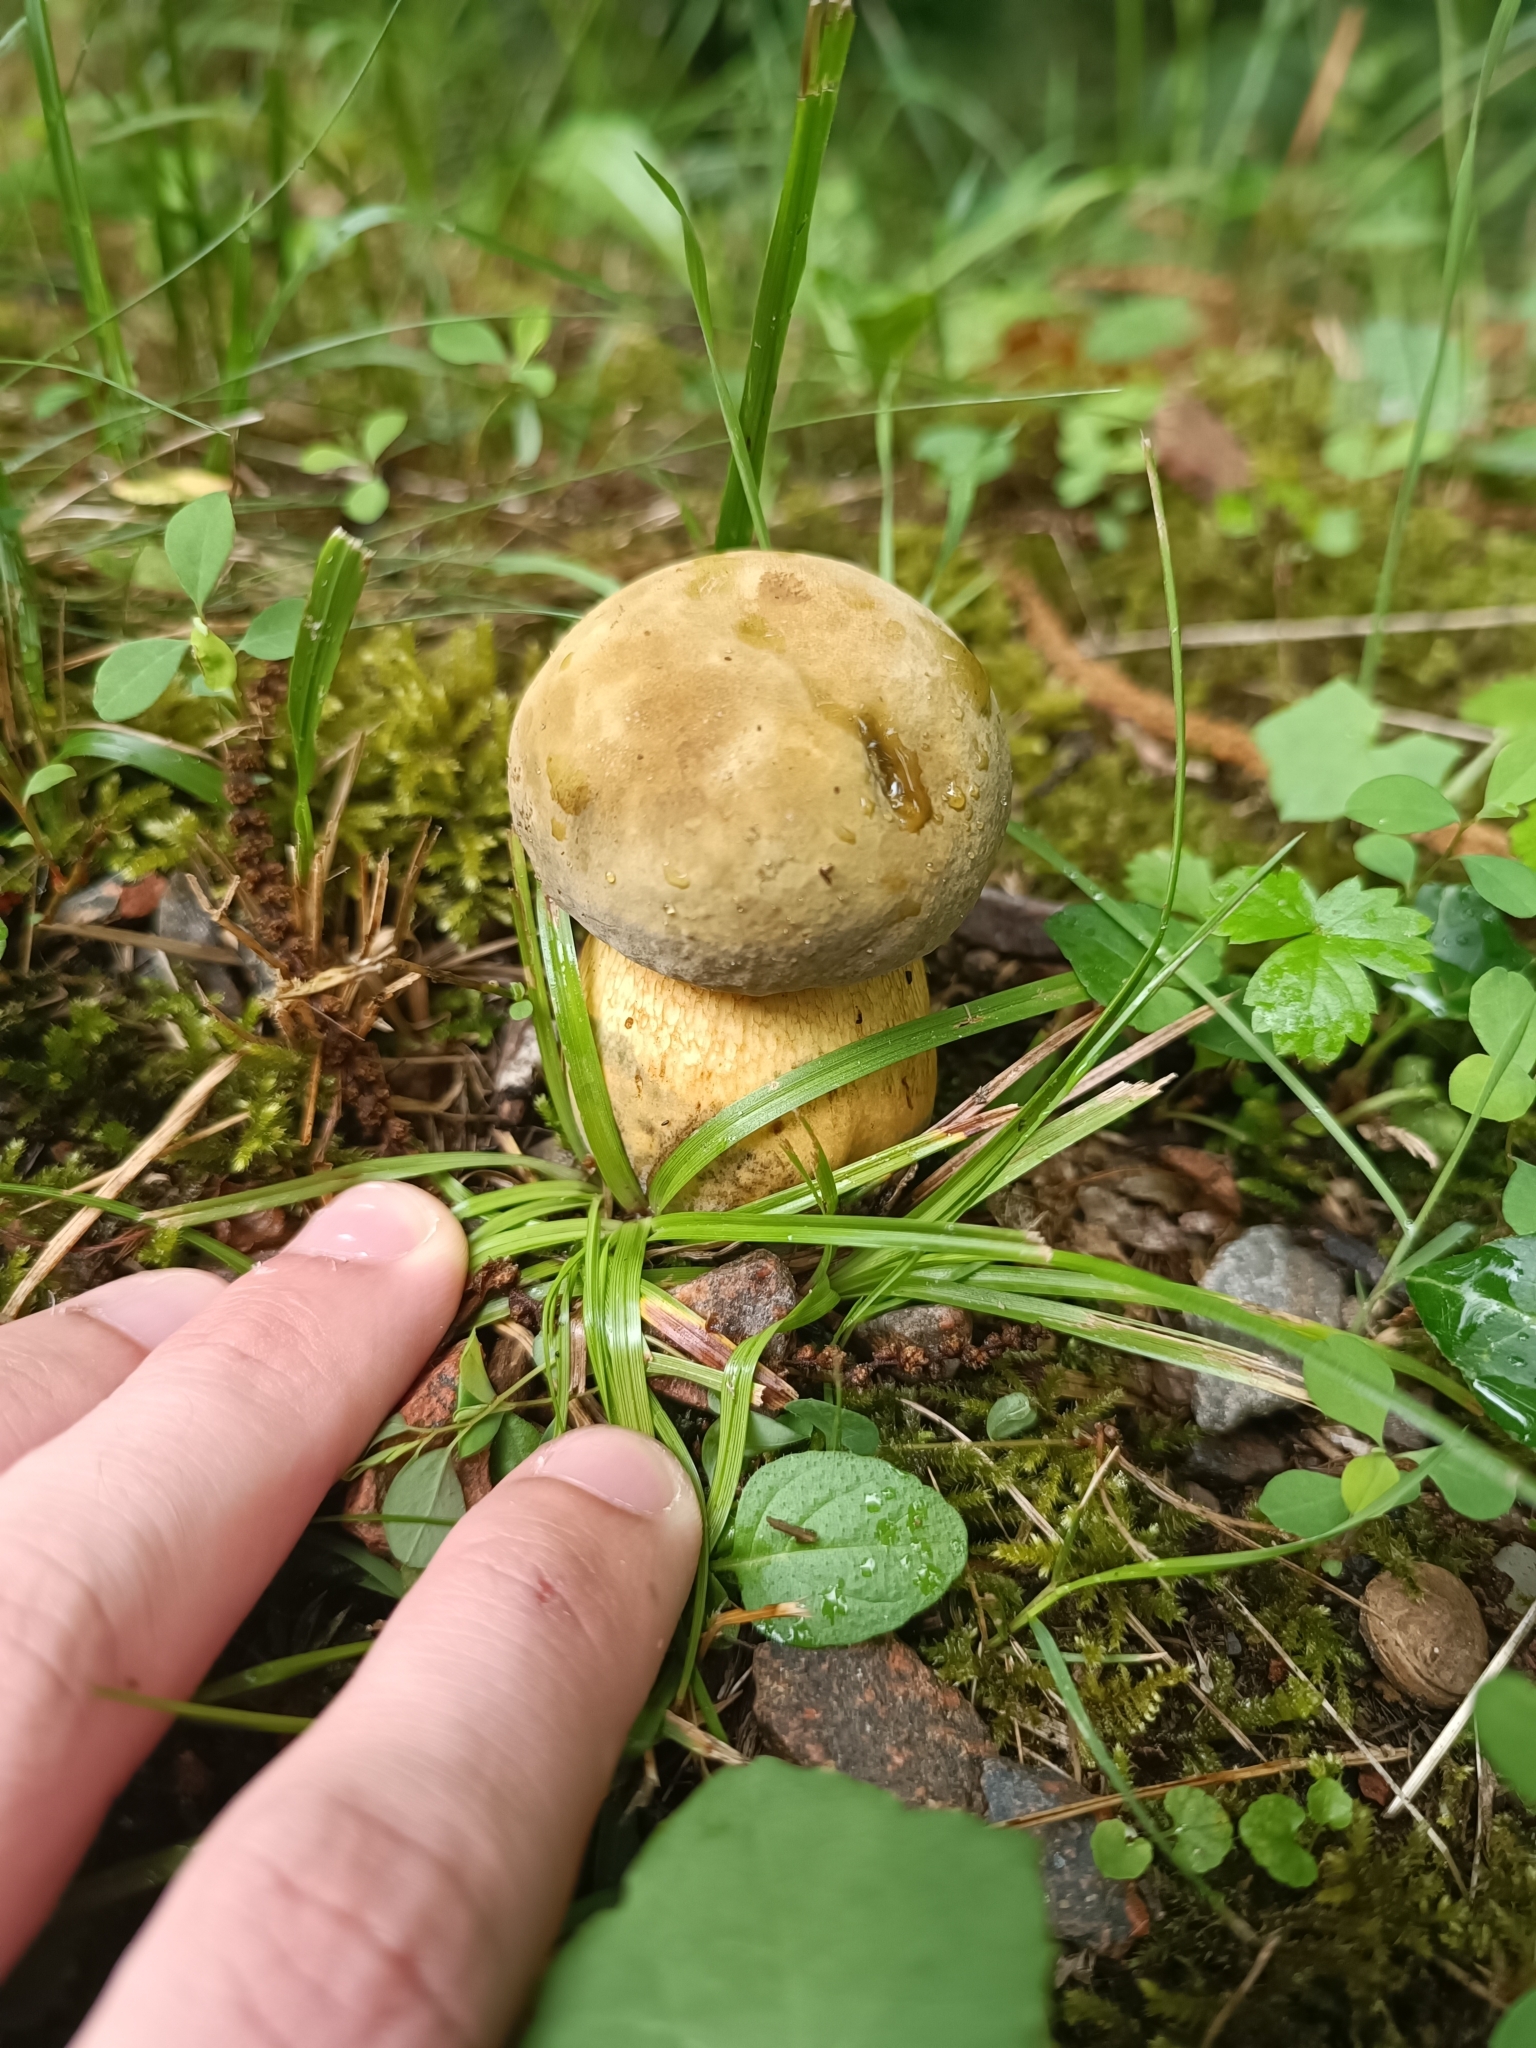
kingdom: Fungi
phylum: Basidiomycota
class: Agaricomycetes
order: Boletales
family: Boletaceae
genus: Suillellus
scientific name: Suillellus luridus
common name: Lurid bolete
